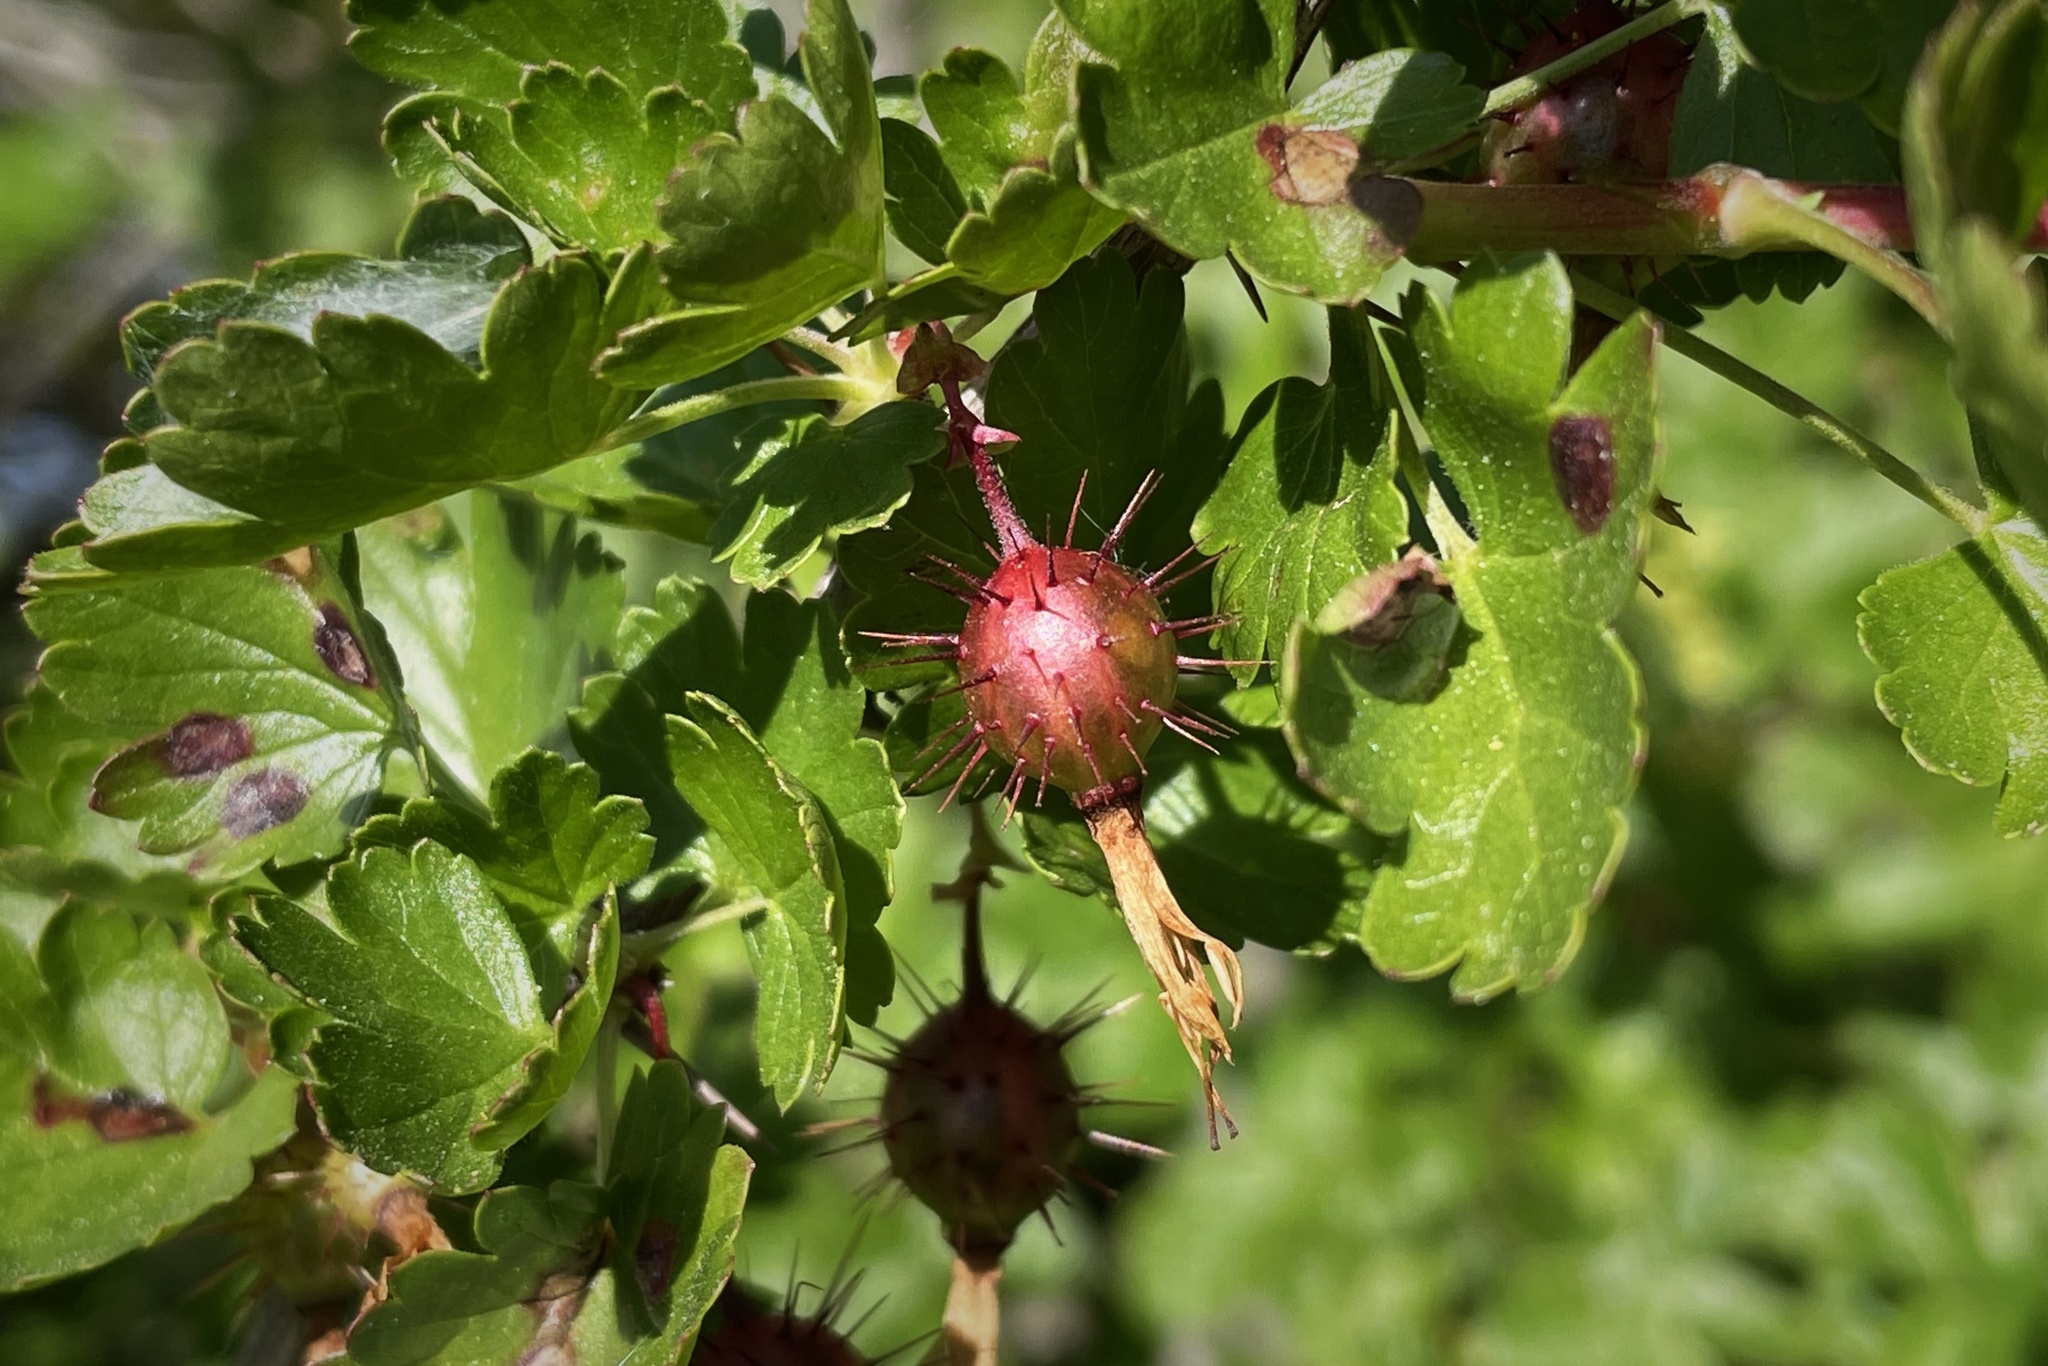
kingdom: Plantae
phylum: Tracheophyta
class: Magnoliopsida
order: Saxifragales
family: Grossulariaceae
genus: Ribes
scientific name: Ribes californicum
